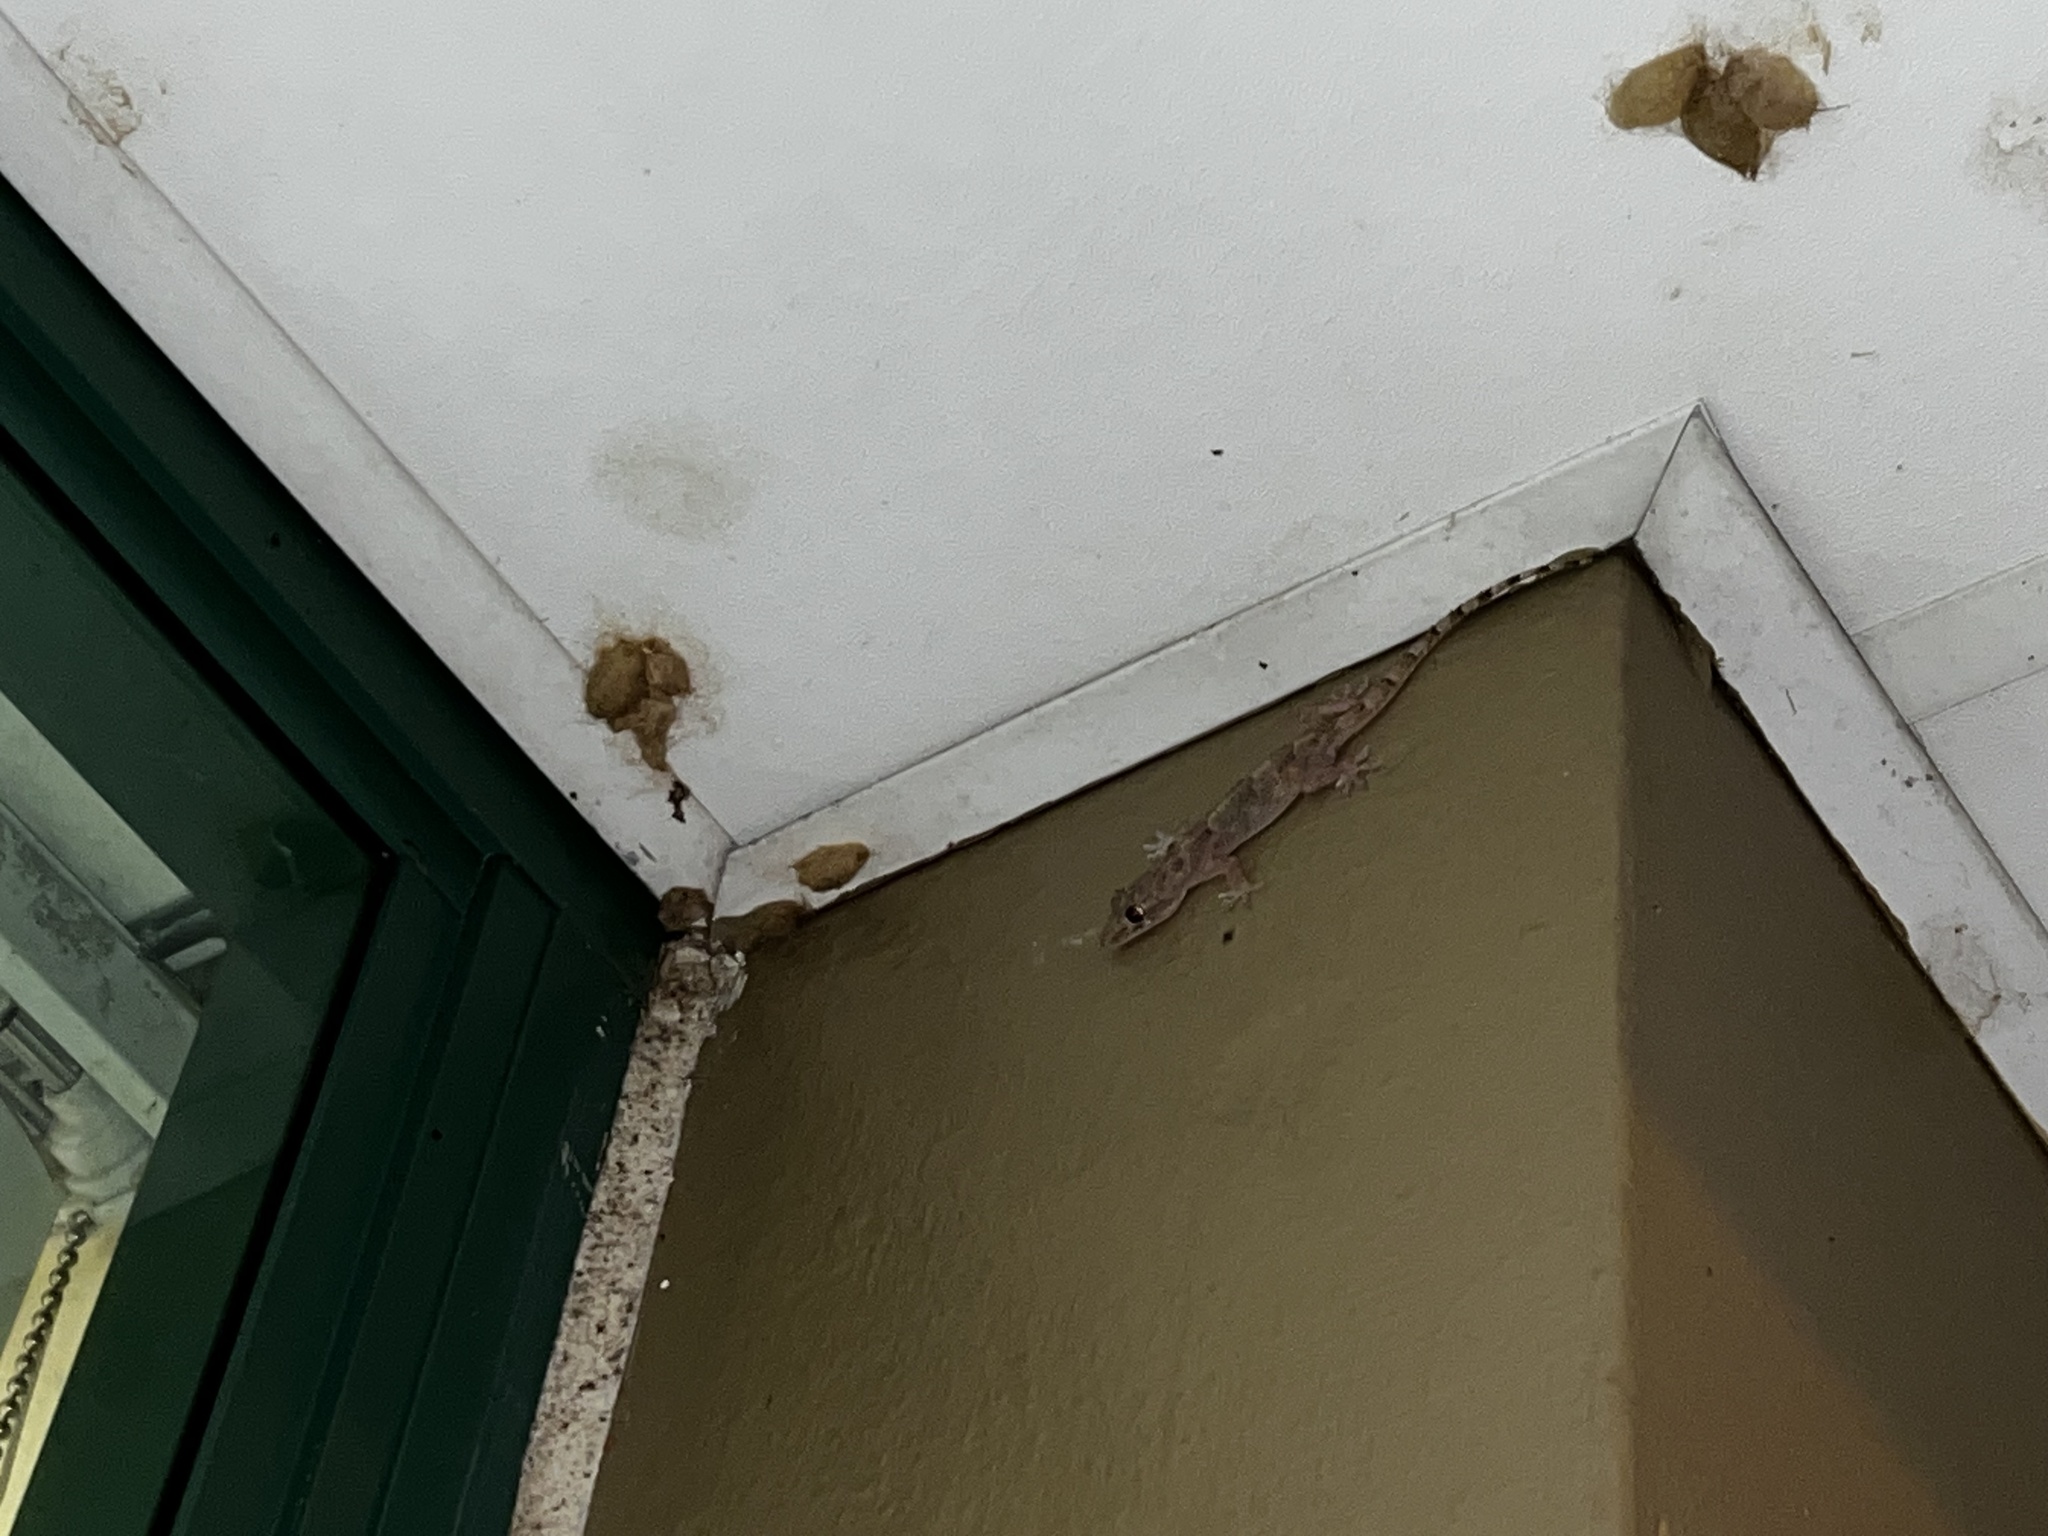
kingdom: Animalia
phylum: Chordata
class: Squamata
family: Gekkonidae
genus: Hemidactylus
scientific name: Hemidactylus mabouia
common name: House gecko
